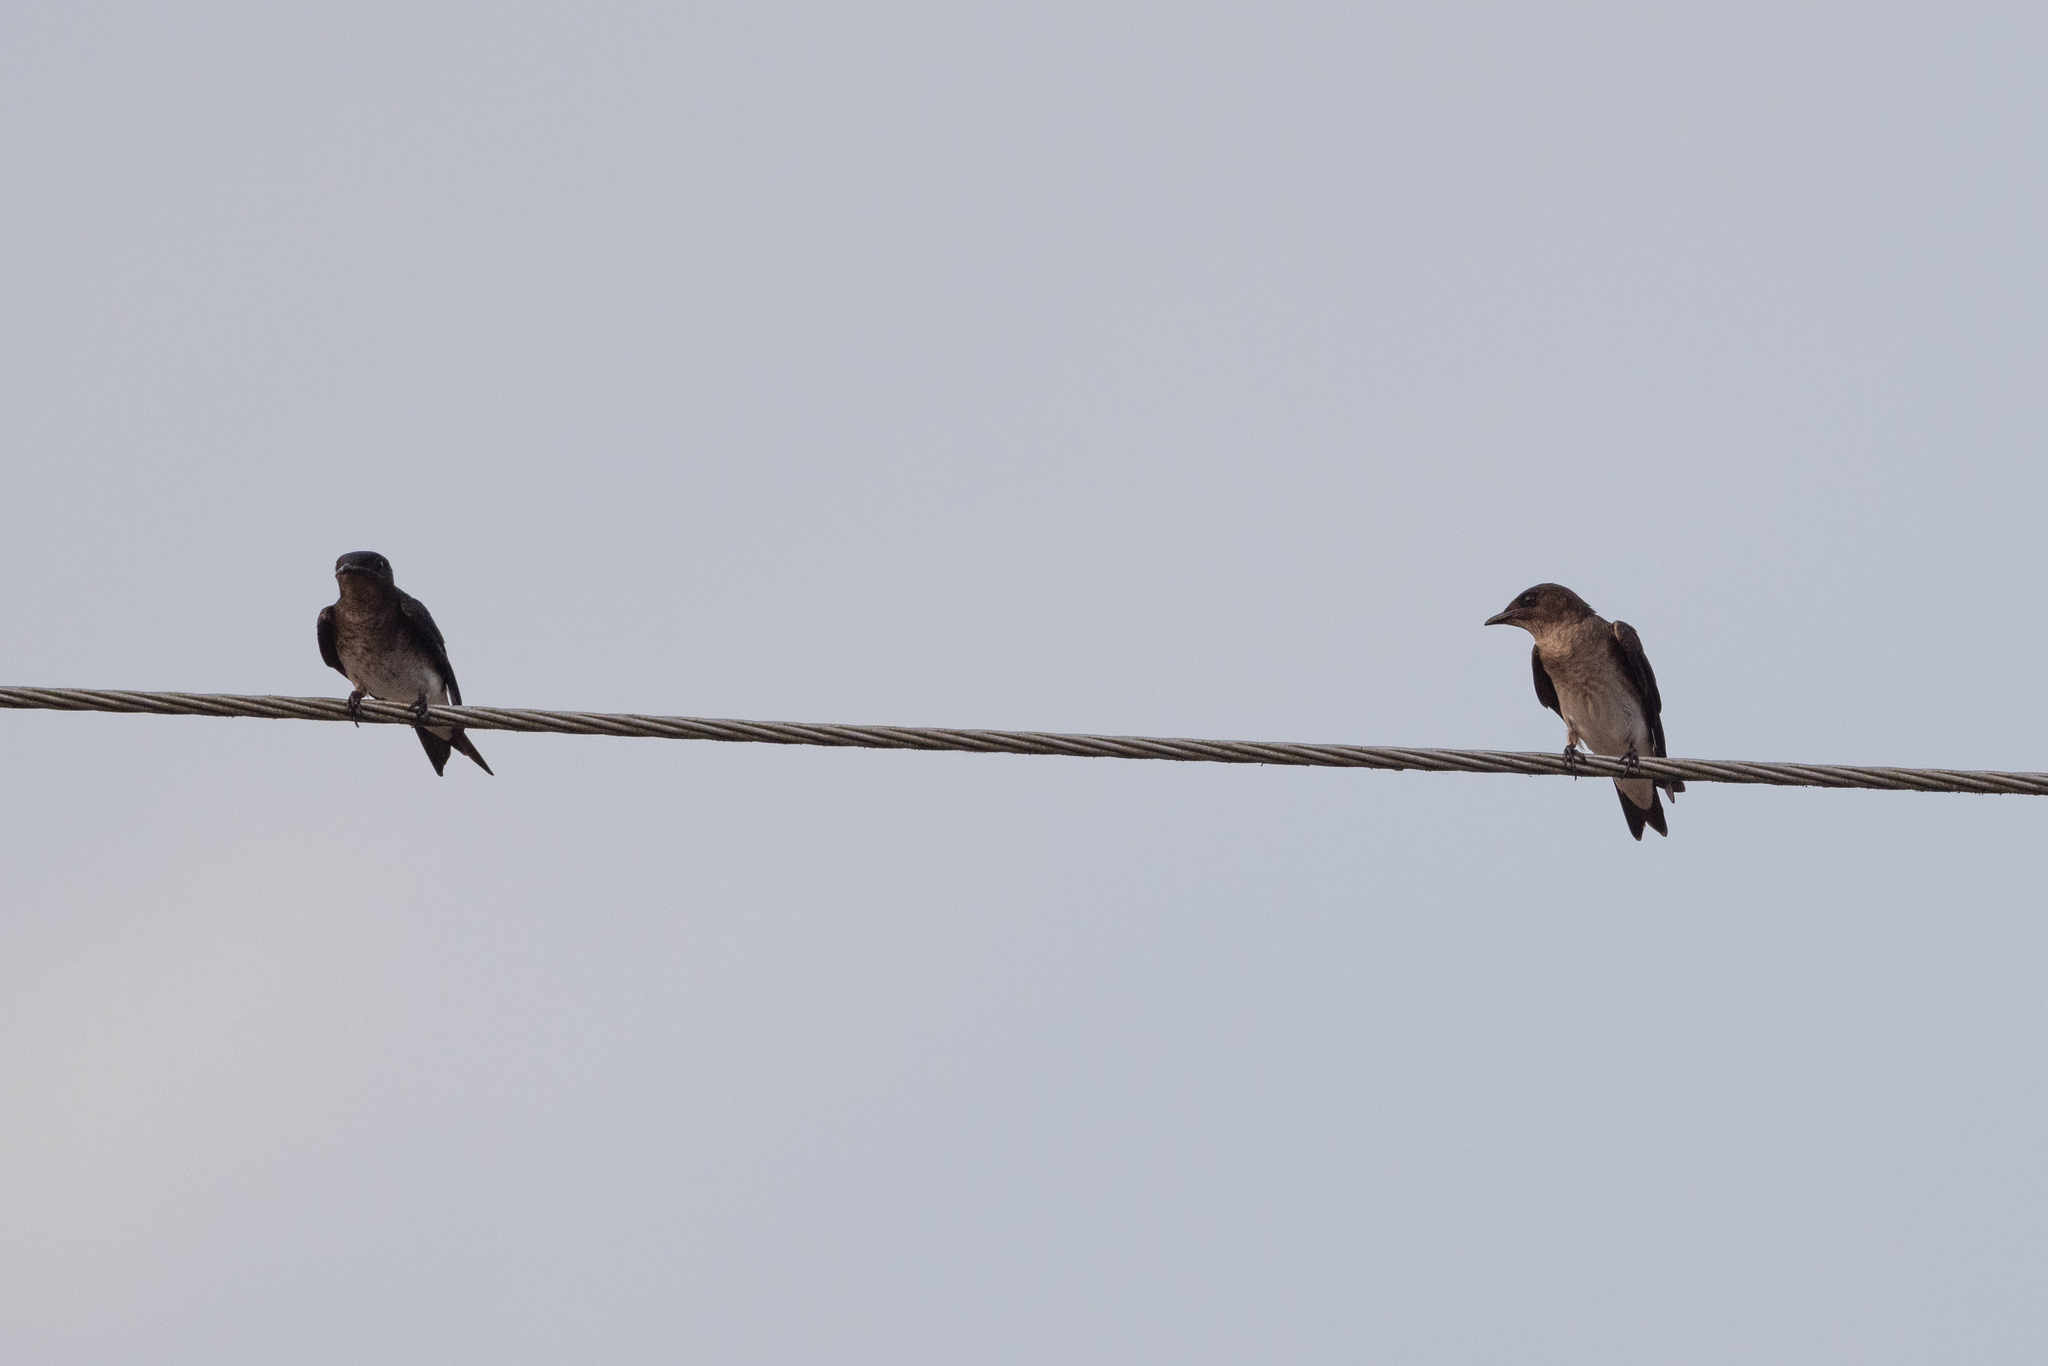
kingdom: Animalia
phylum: Chordata
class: Aves
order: Passeriformes
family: Hirundinidae
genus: Progne
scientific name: Progne chalybea
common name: Grey-breasted martin
